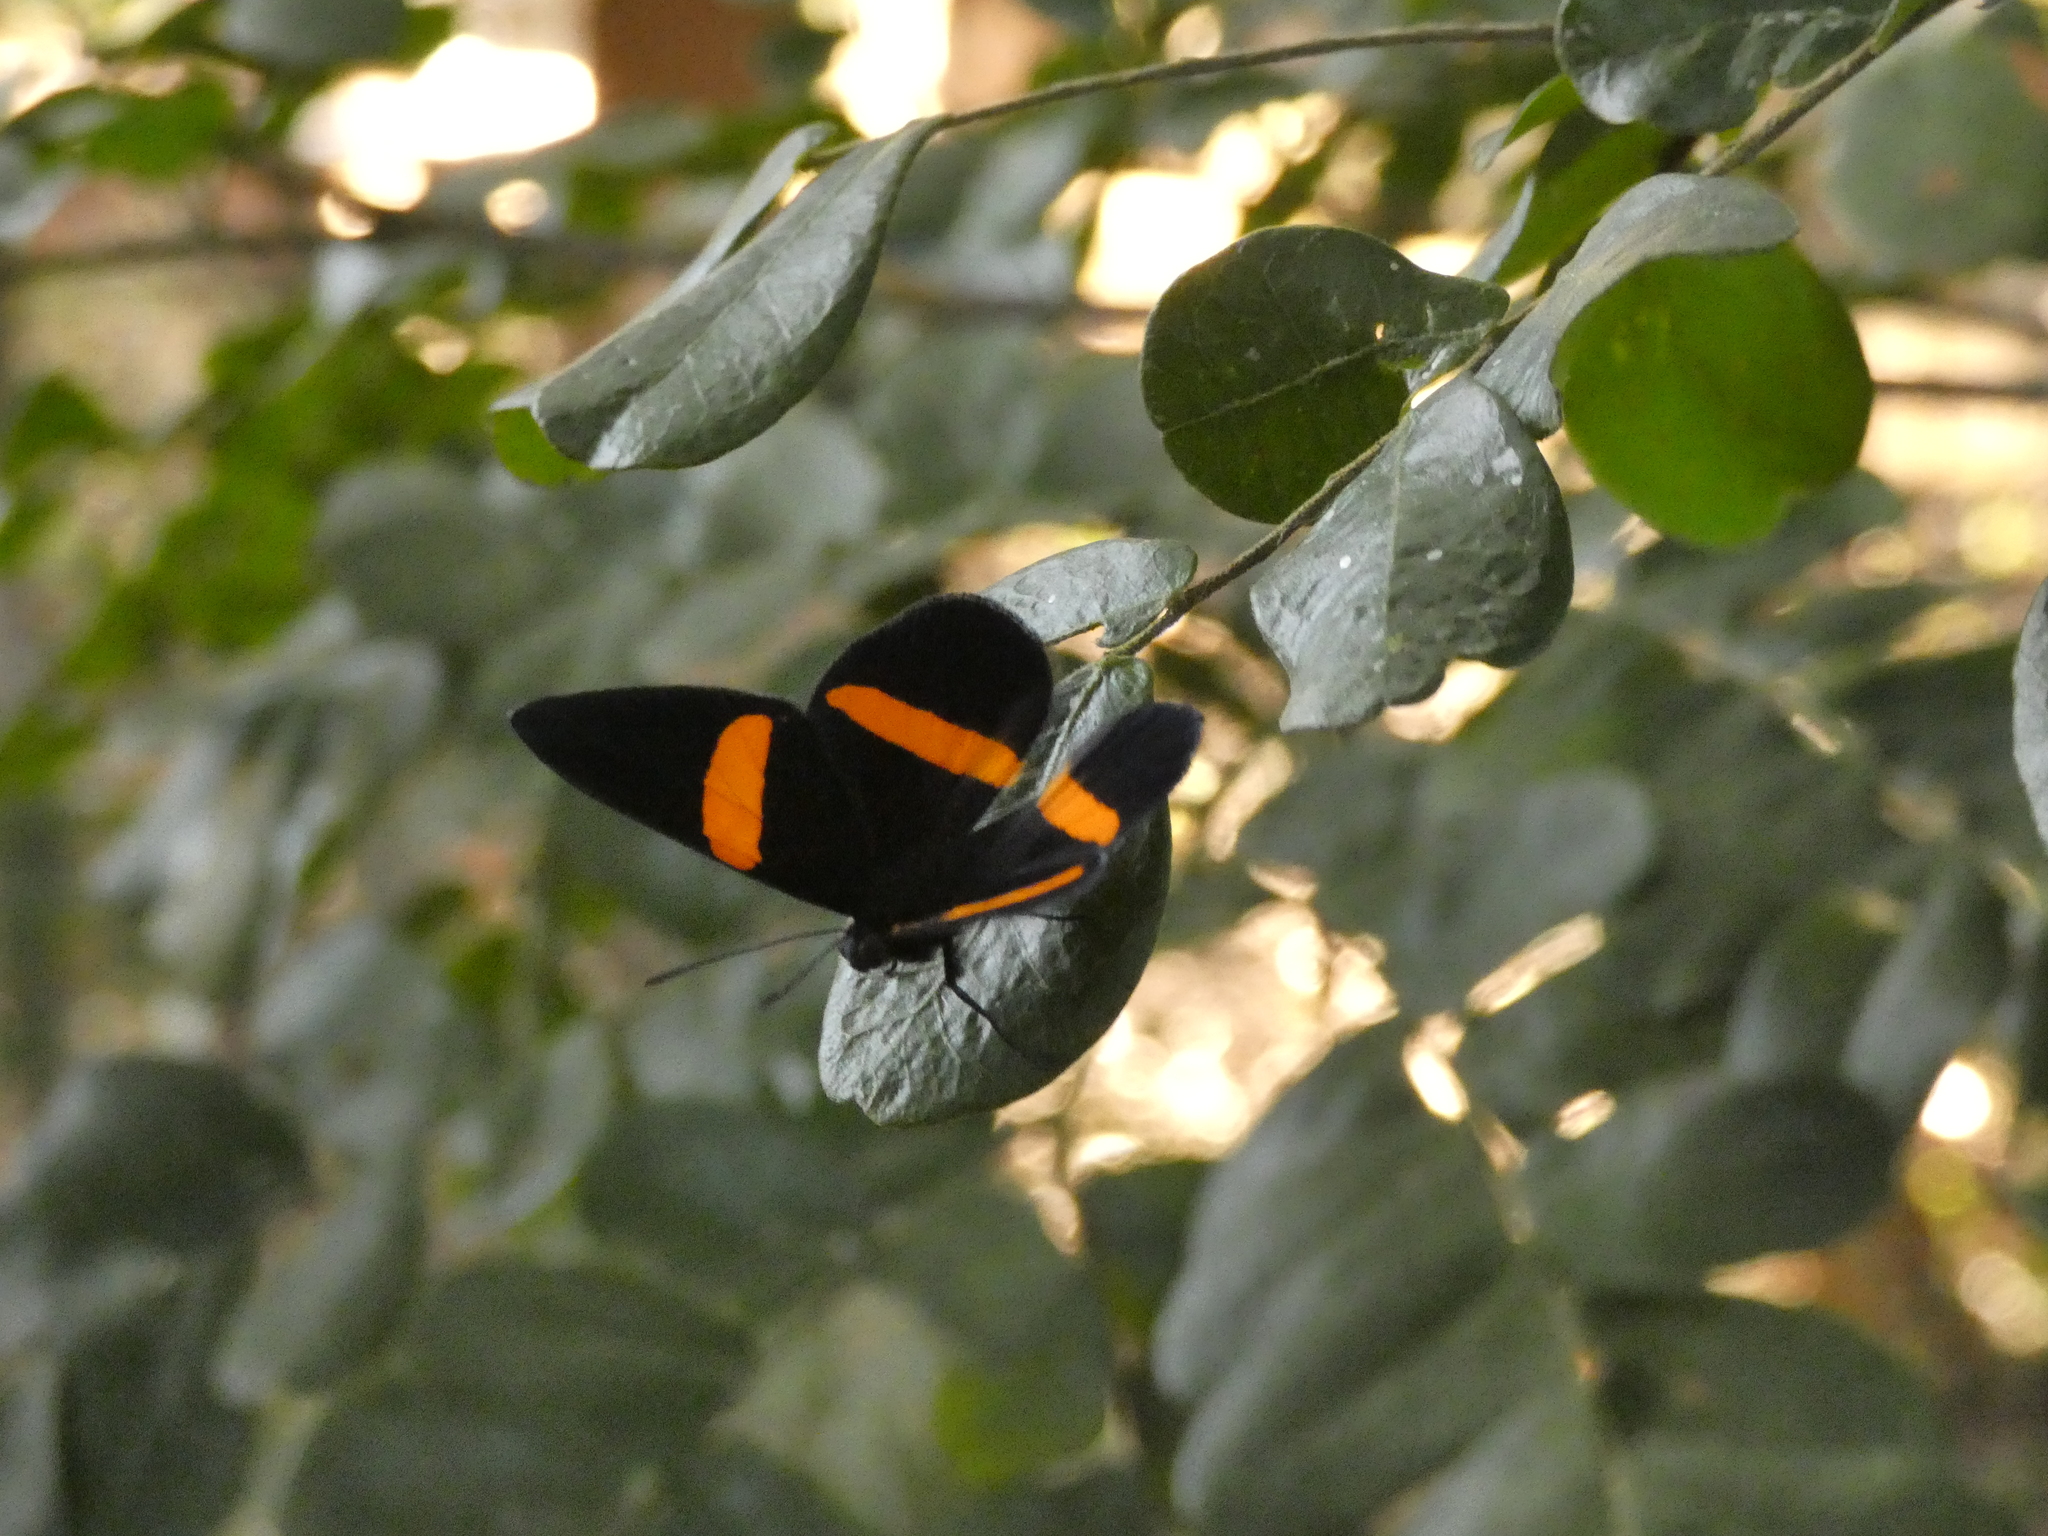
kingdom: Animalia
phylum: Arthropoda
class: Insecta
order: Lepidoptera
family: Riodinidae
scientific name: Riodinidae
